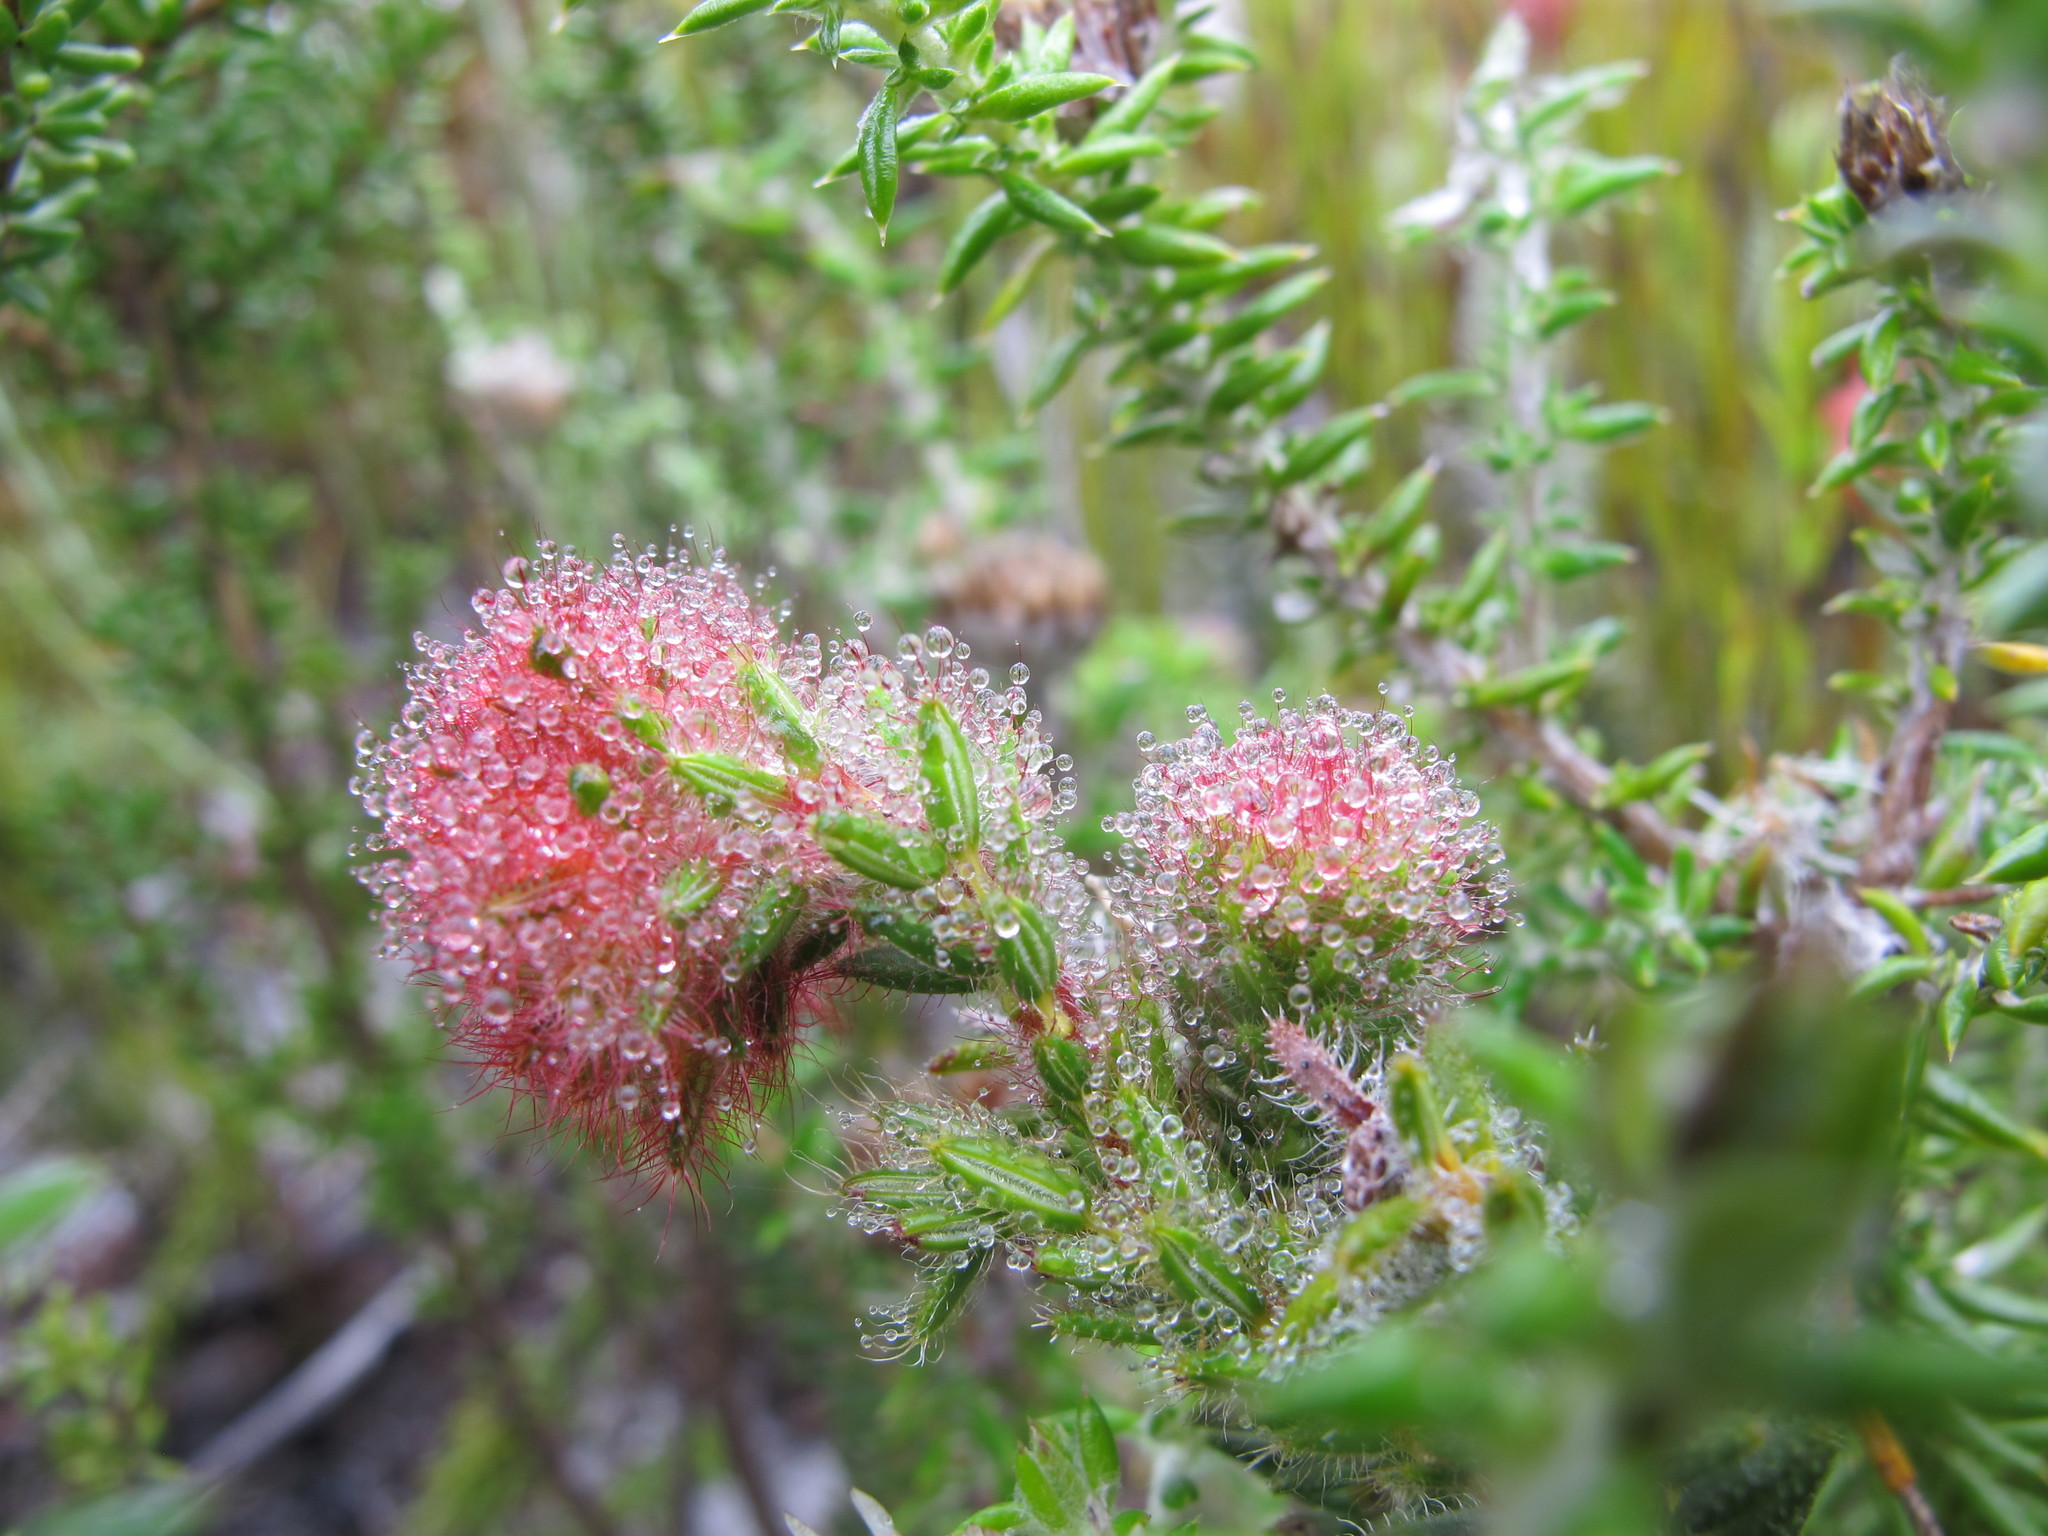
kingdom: Plantae
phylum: Tracheophyta
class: Magnoliopsida
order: Ericales
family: Ericaceae
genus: Erica
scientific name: Erica cerinthoides
